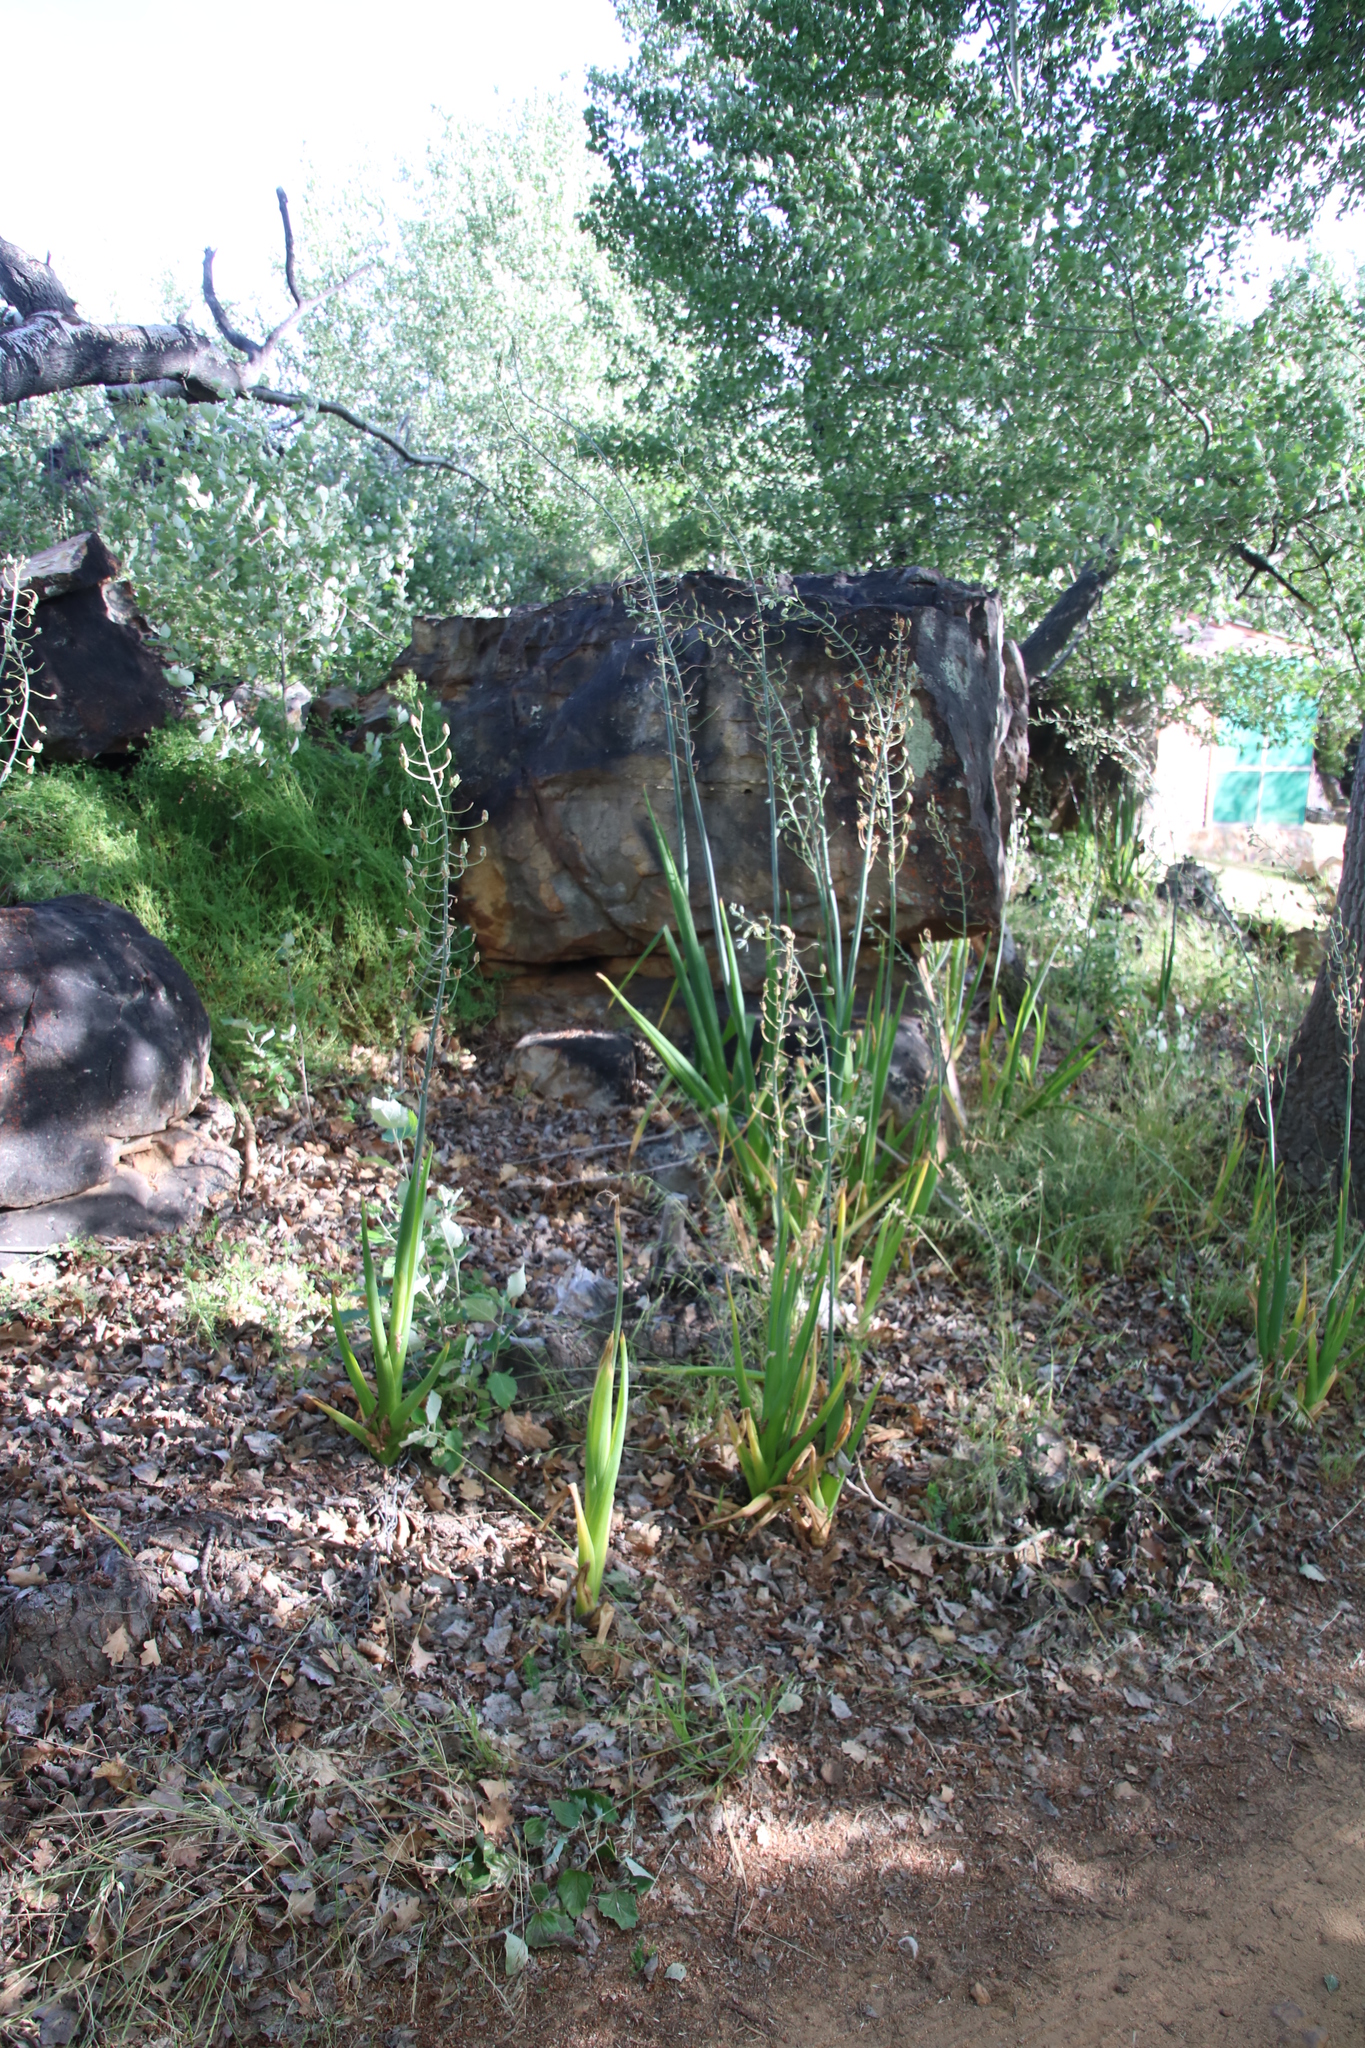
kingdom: Plantae
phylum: Tracheophyta
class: Liliopsida
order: Asparagales
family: Asparagaceae
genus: Albuca
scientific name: Albuca canadensis
